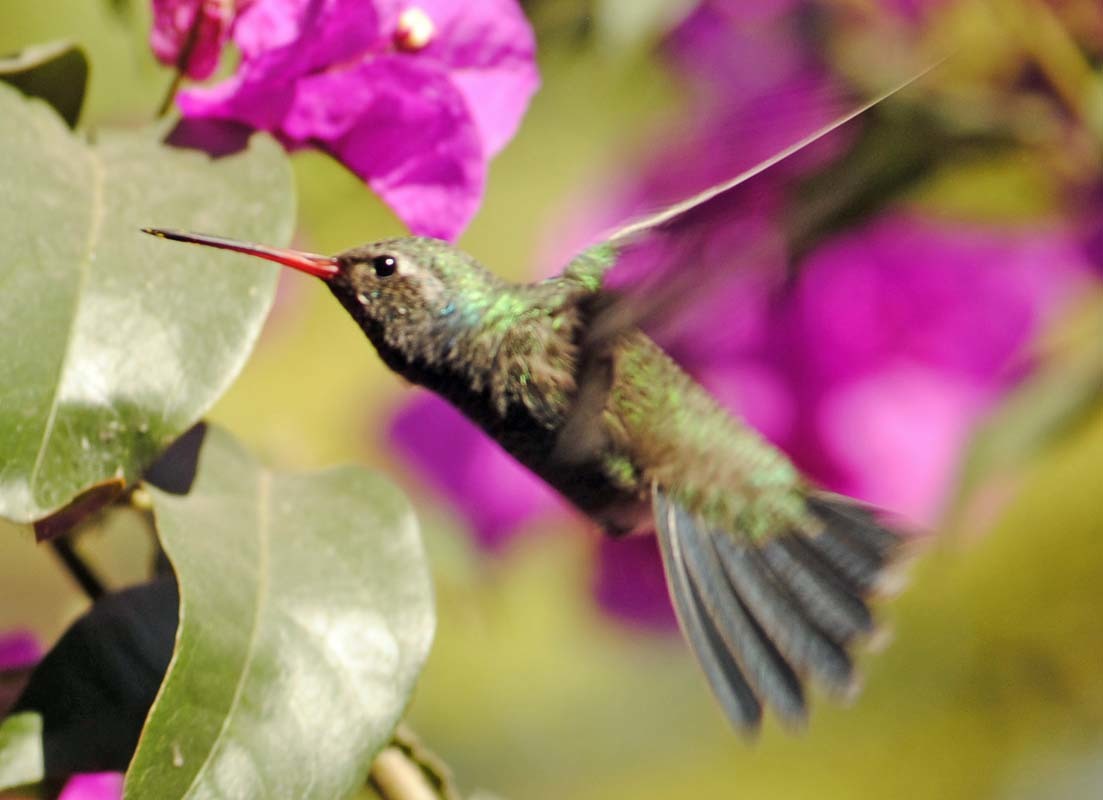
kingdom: Animalia
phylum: Chordata
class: Aves
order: Apodiformes
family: Trochilidae
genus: Cynanthus
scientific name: Cynanthus latirostris
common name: Broad-billed hummingbird
